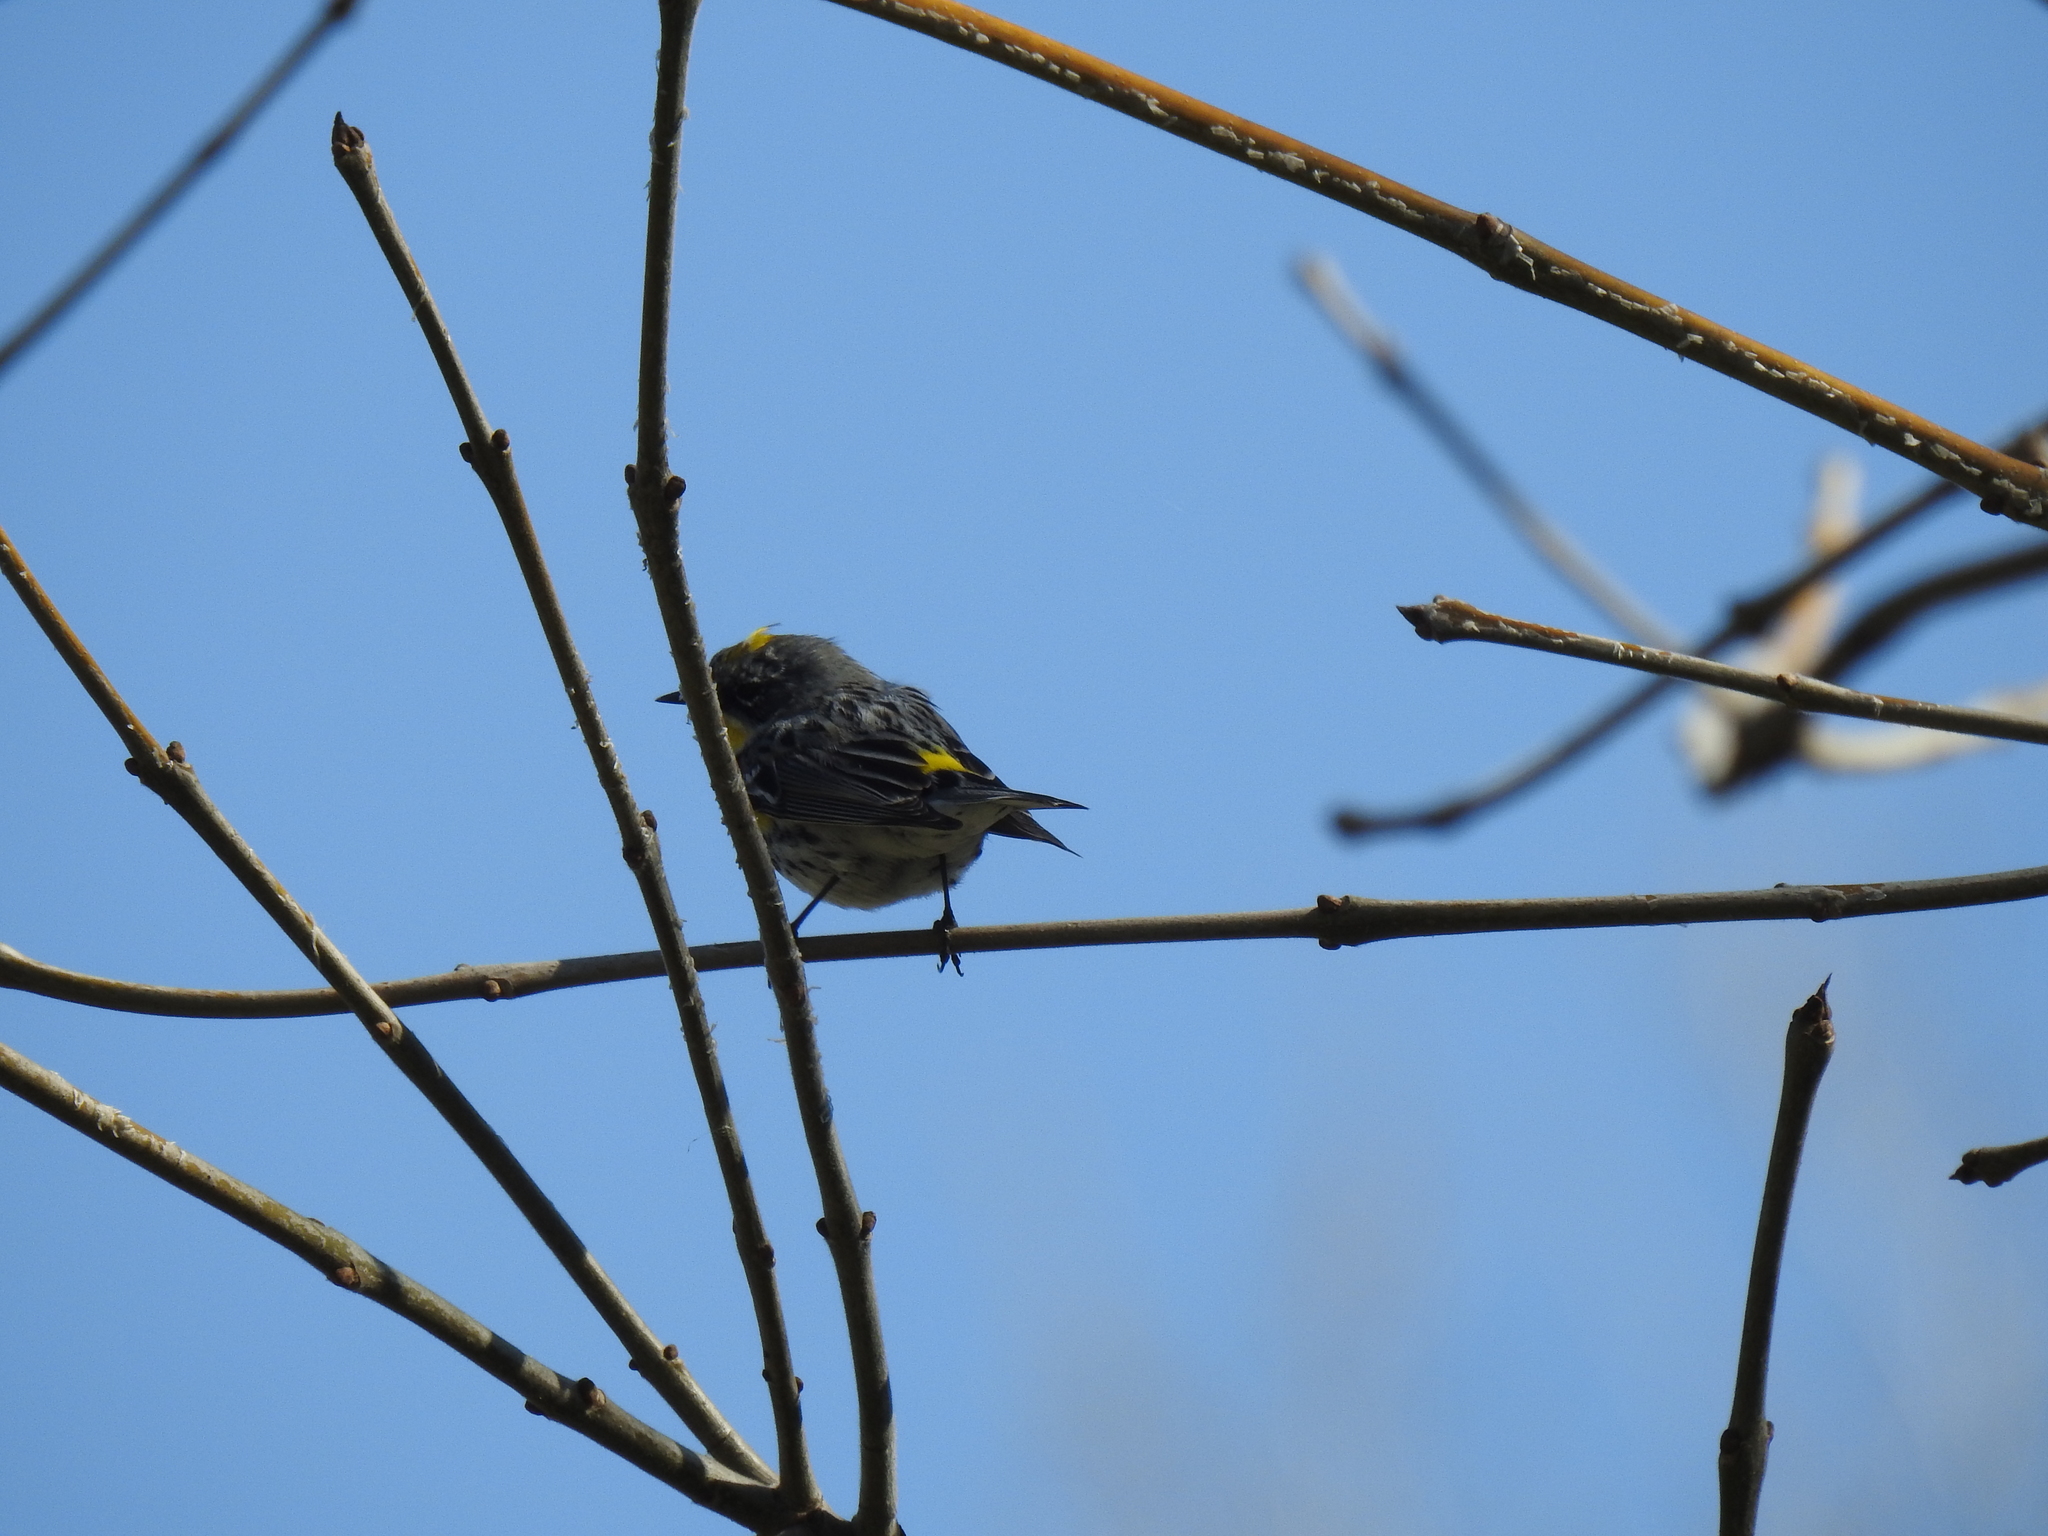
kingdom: Animalia
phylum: Chordata
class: Aves
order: Passeriformes
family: Parulidae
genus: Setophaga
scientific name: Setophaga coronata
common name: Myrtle warbler
